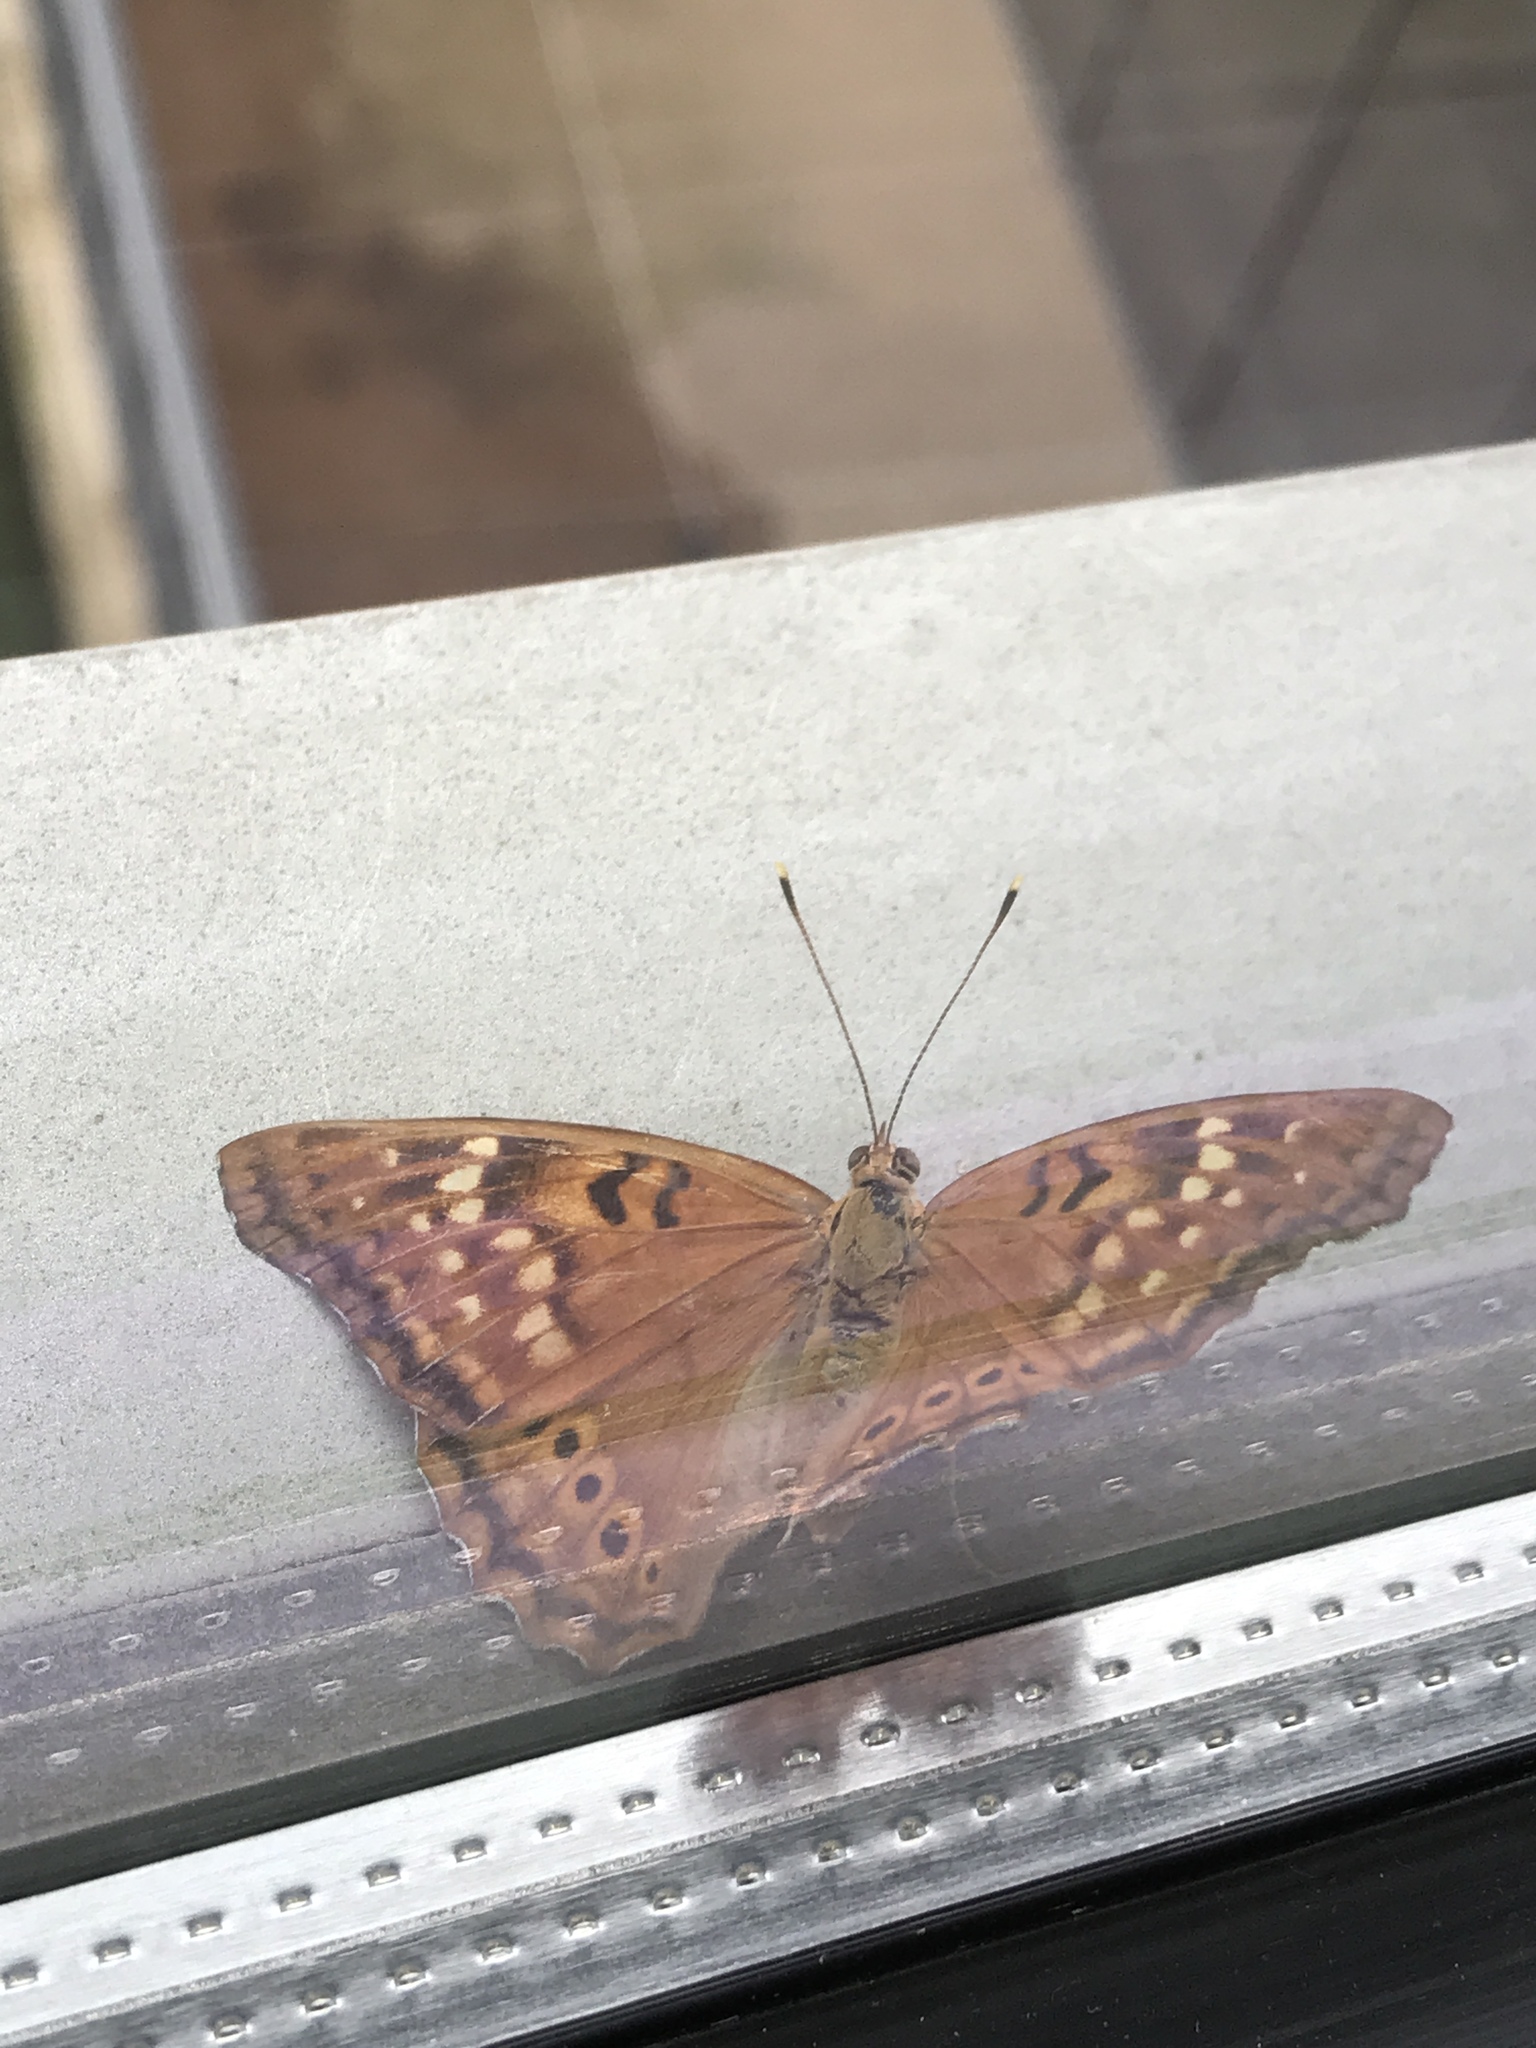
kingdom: Animalia
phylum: Arthropoda
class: Insecta
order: Lepidoptera
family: Nymphalidae
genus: Asterocampa
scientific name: Asterocampa clyton
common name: Tawny emperor
